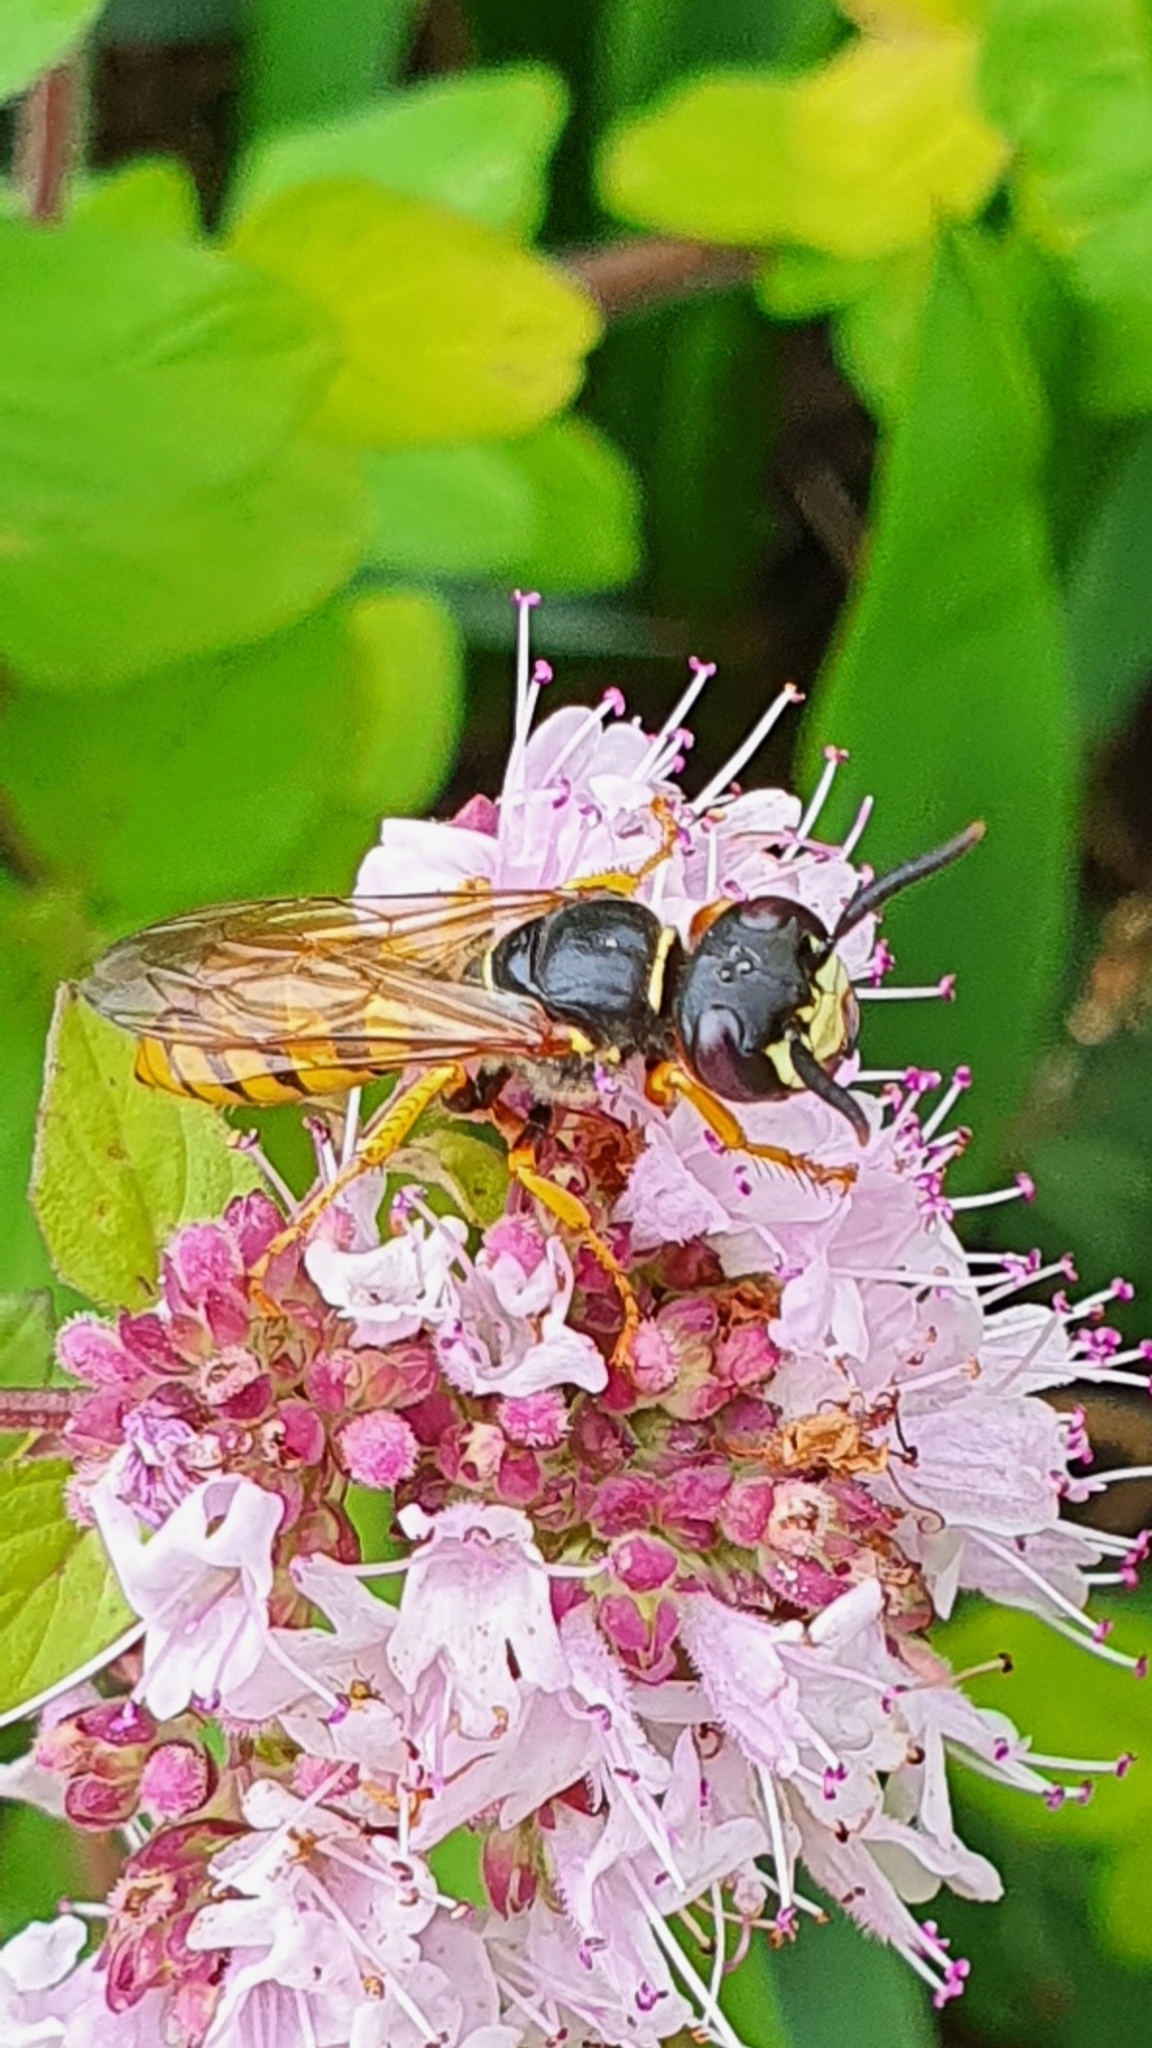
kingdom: Animalia
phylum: Arthropoda
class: Insecta
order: Hymenoptera
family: Crabronidae
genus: Philanthus
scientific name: Philanthus triangulum
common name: Bee wolf
